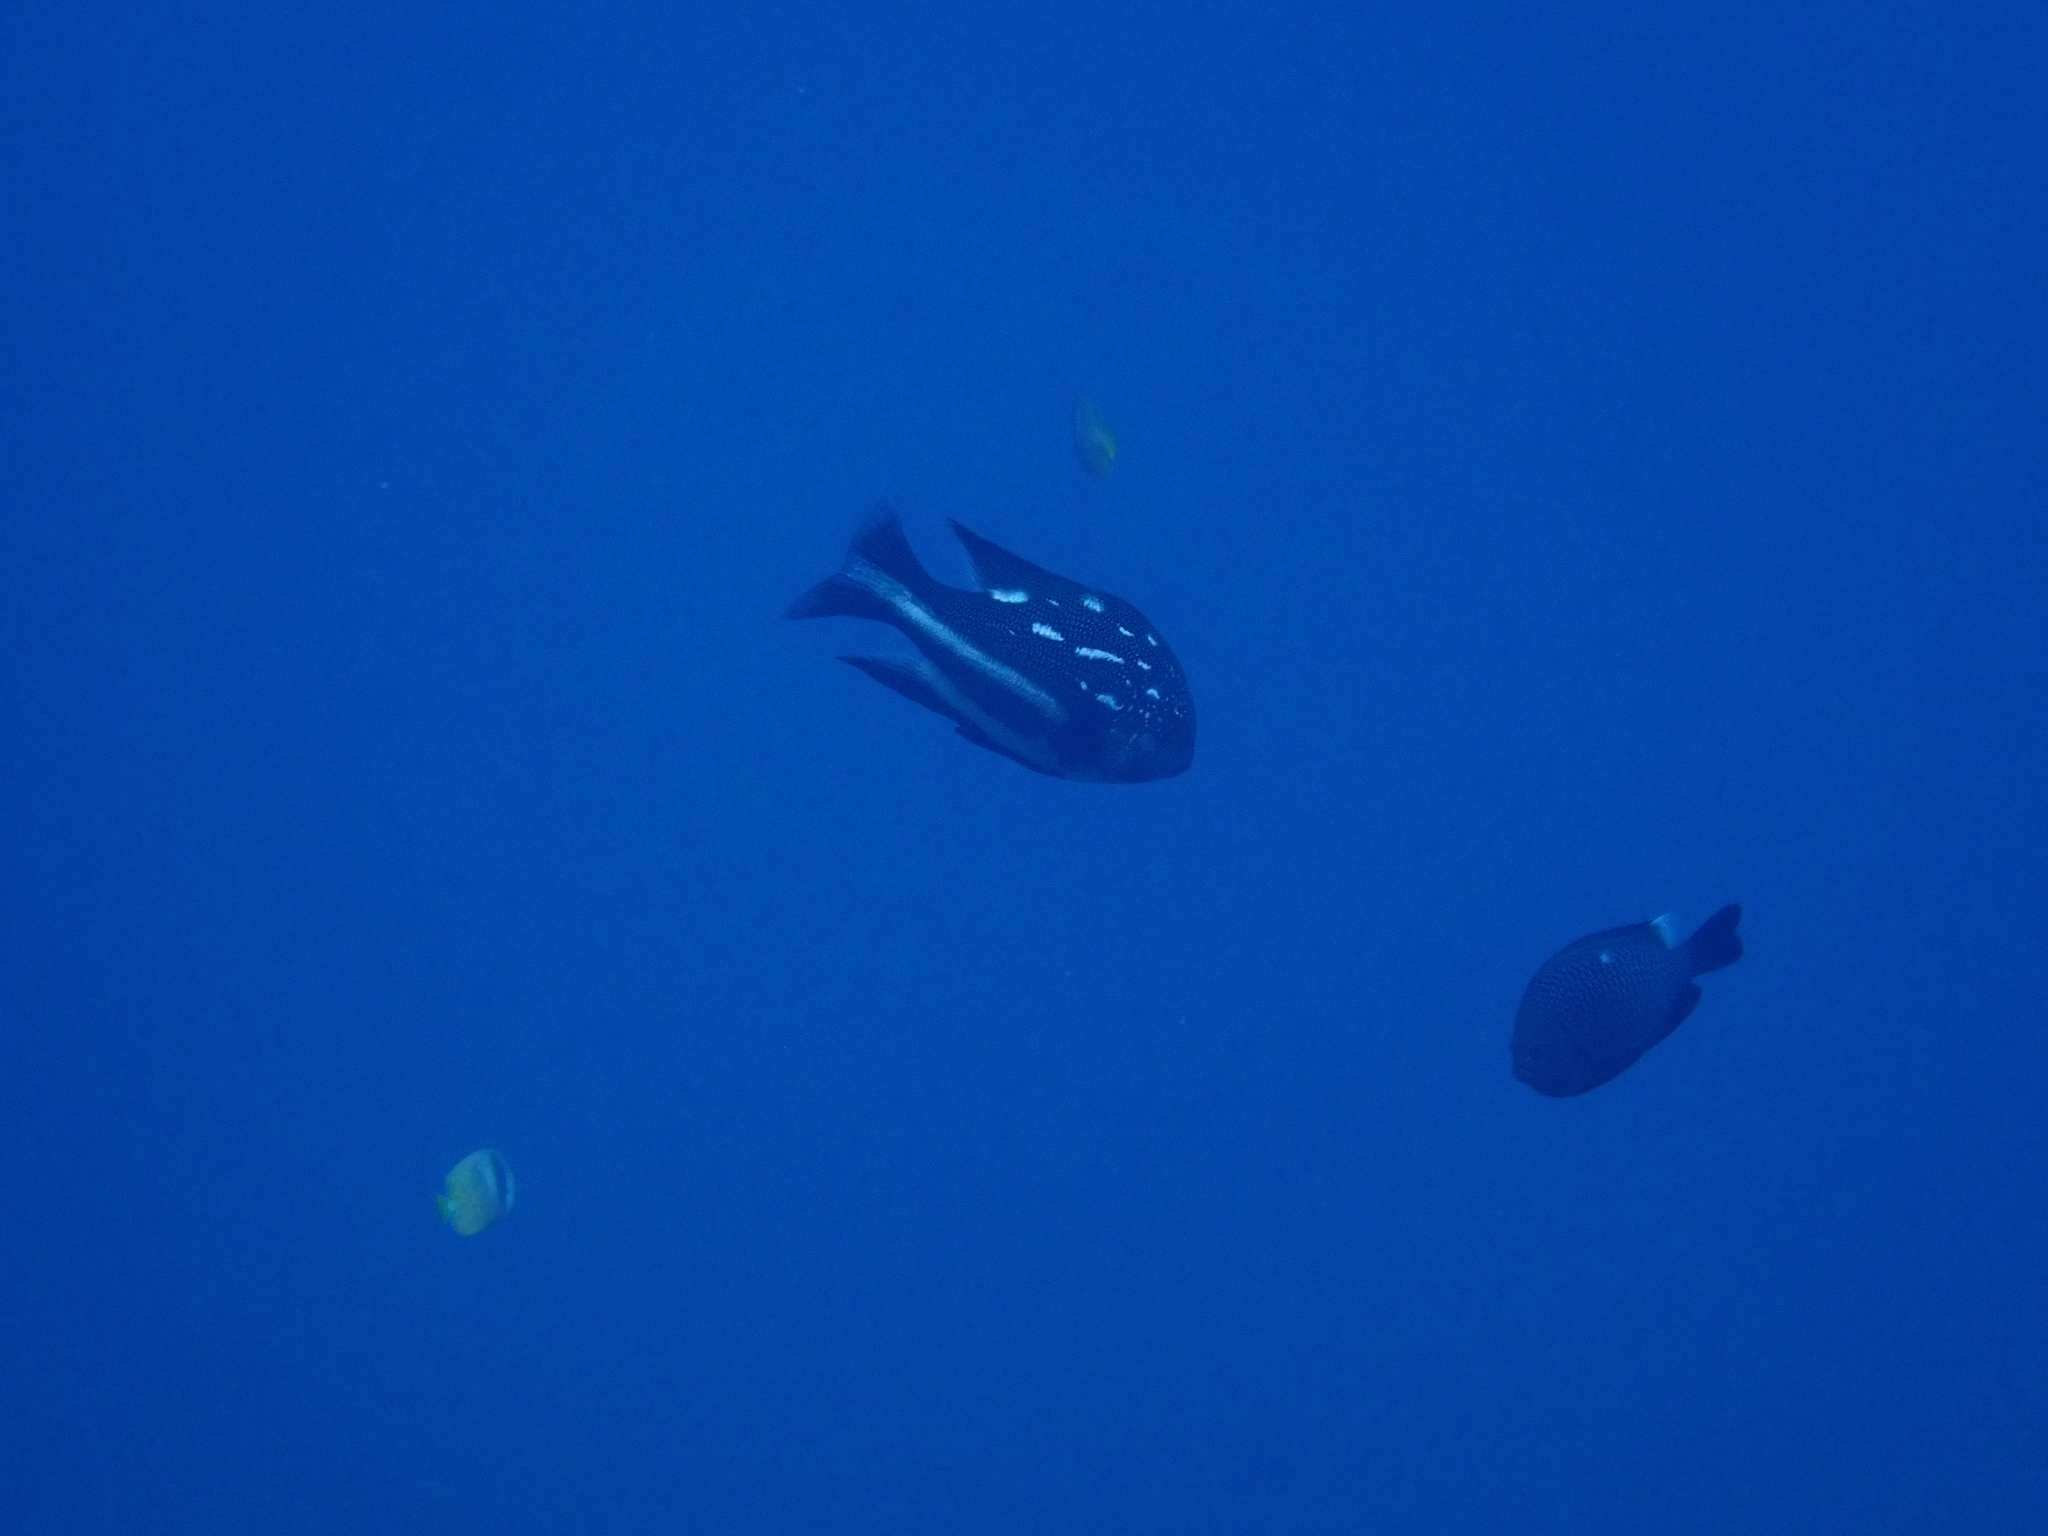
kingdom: Animalia
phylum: Chordata
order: Perciformes
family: Lutjanidae
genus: Macolor
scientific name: Macolor macularis
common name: Midnight snapper
